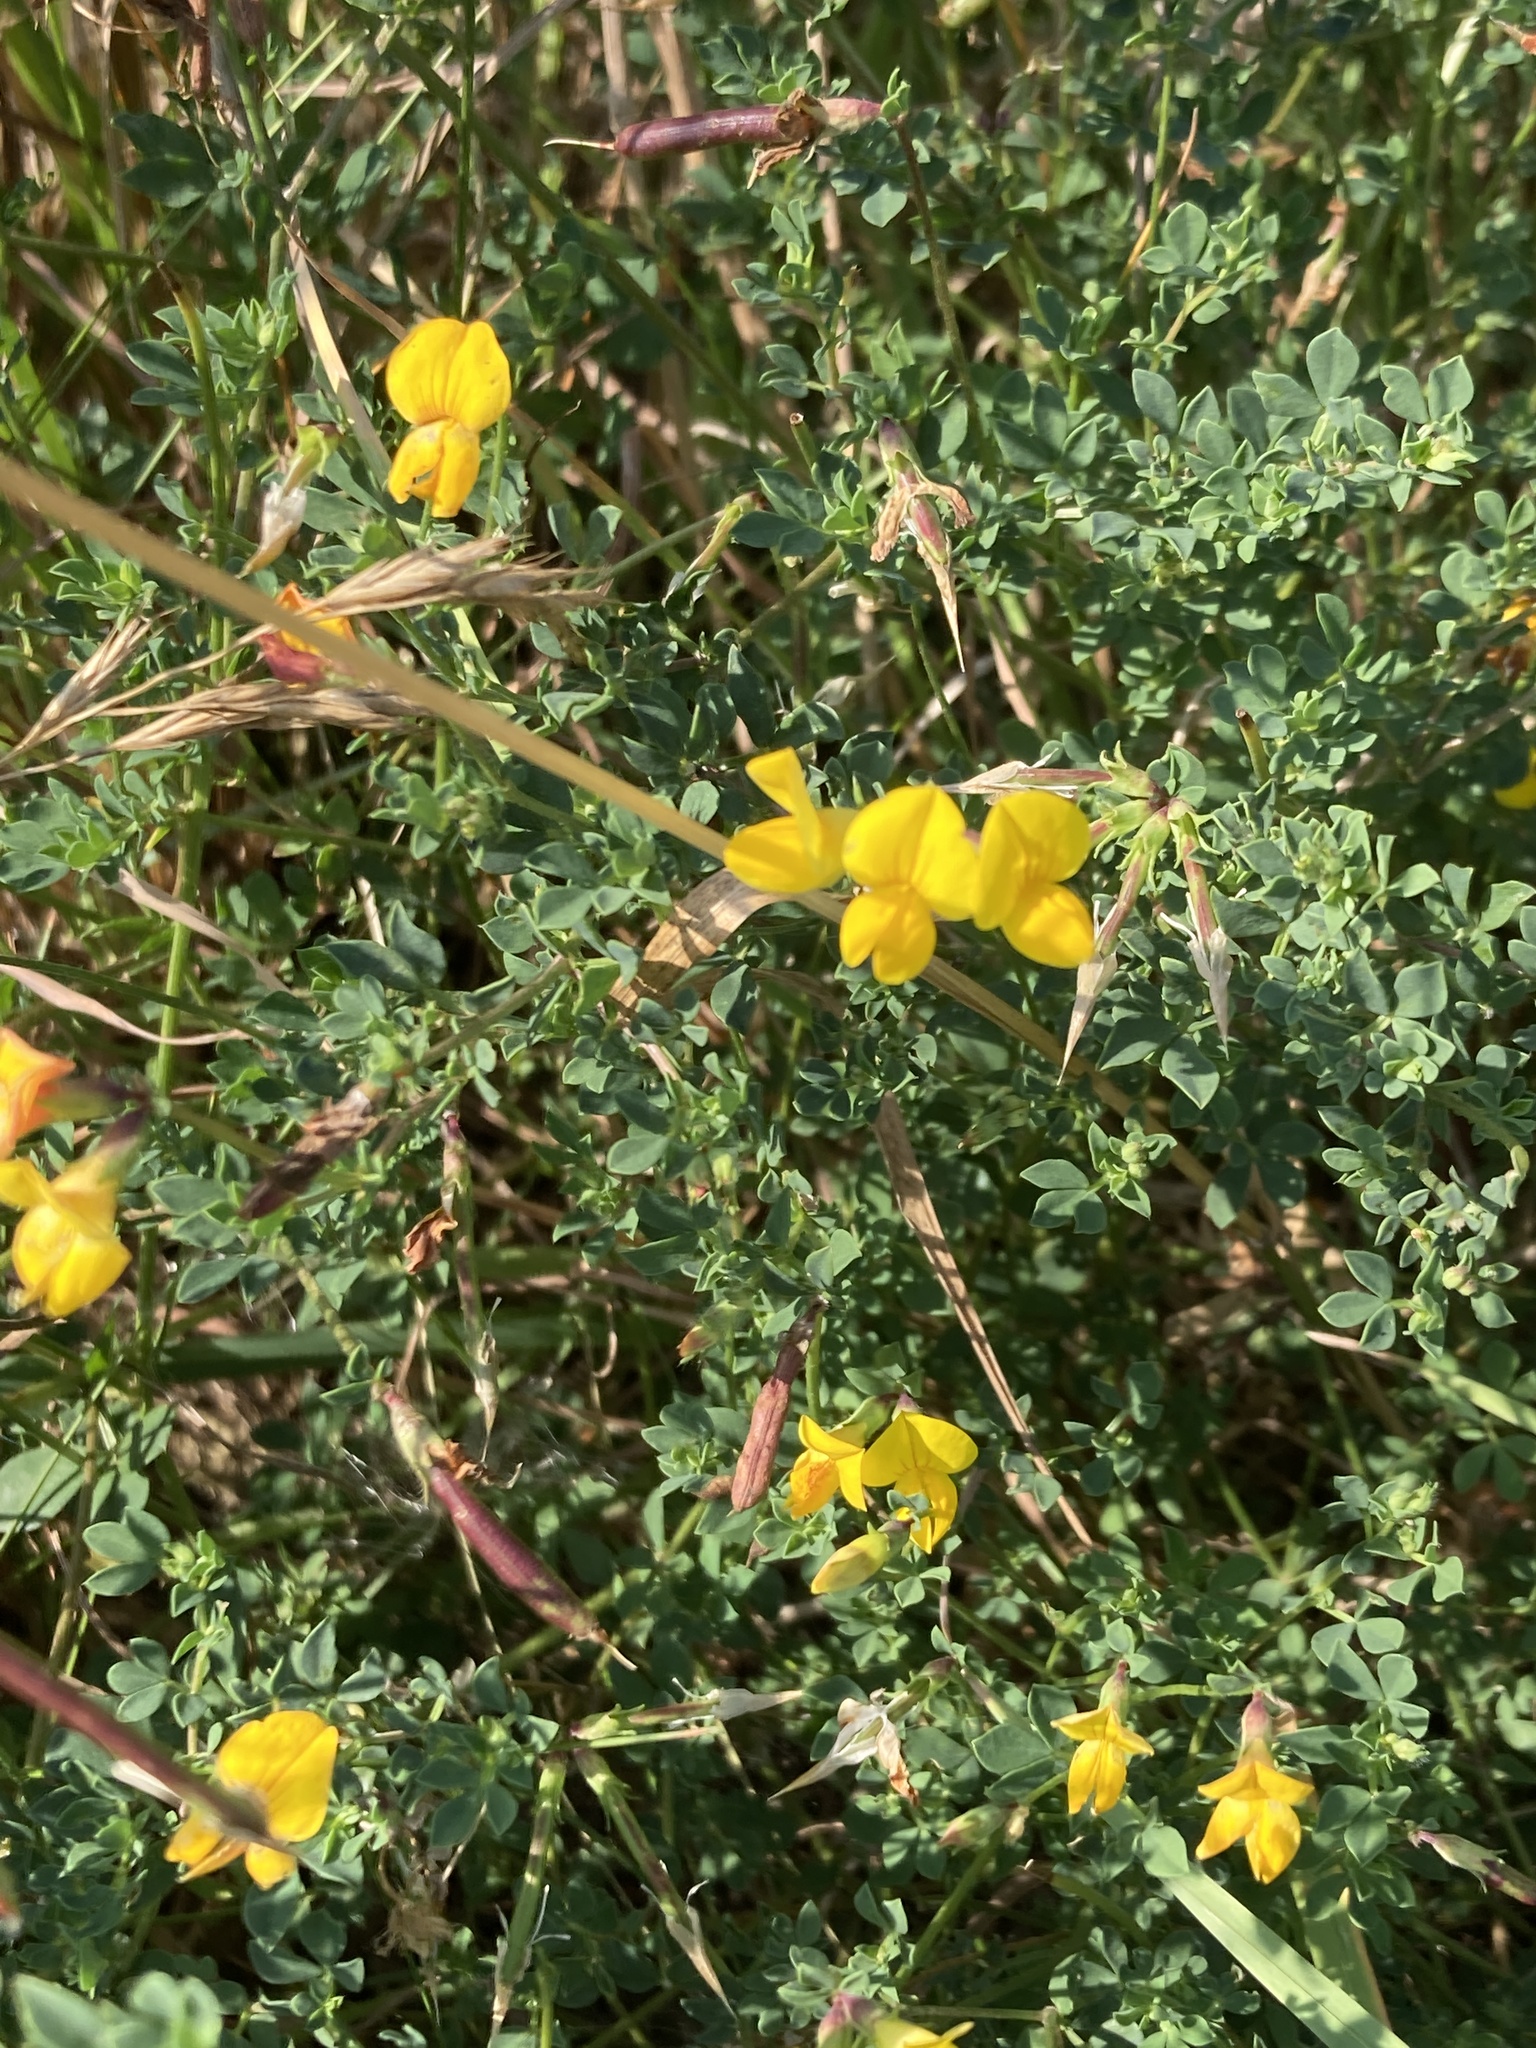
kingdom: Plantae
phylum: Tracheophyta
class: Magnoliopsida
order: Fabales
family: Fabaceae
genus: Lotus
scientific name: Lotus corniculatus
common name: Common bird's-foot-trefoil
